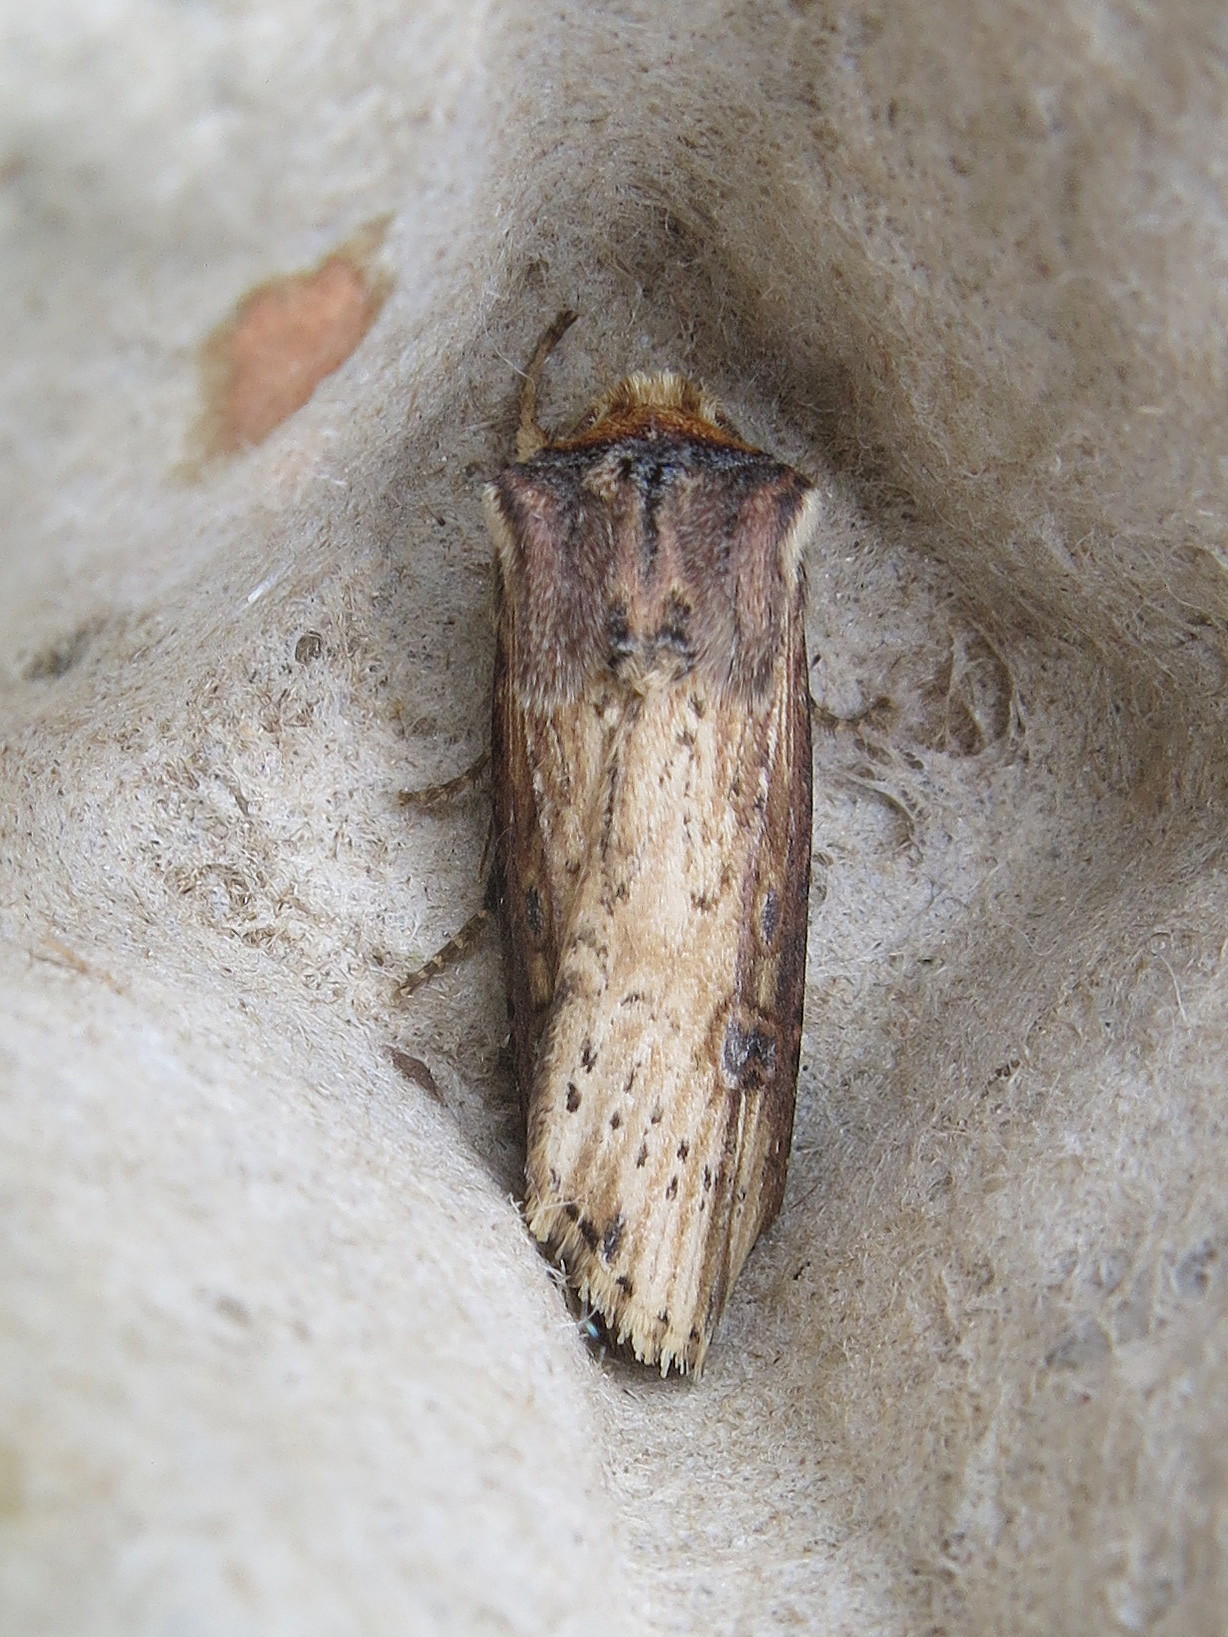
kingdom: Animalia
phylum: Arthropoda
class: Insecta
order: Lepidoptera
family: Noctuidae
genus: Axylia
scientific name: Axylia putris
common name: Flame
